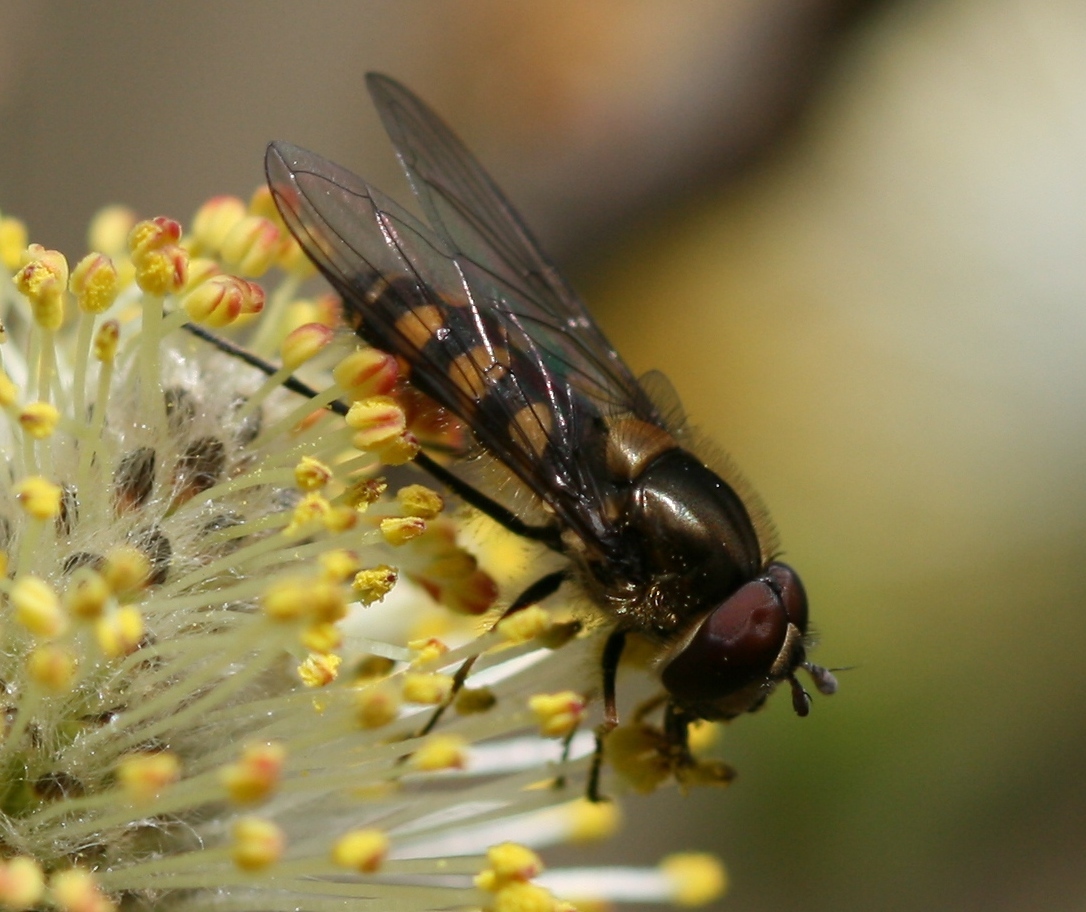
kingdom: Animalia
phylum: Arthropoda
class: Insecta
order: Diptera
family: Syrphidae
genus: Parasyrphus
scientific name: Parasyrphus punctulatus
